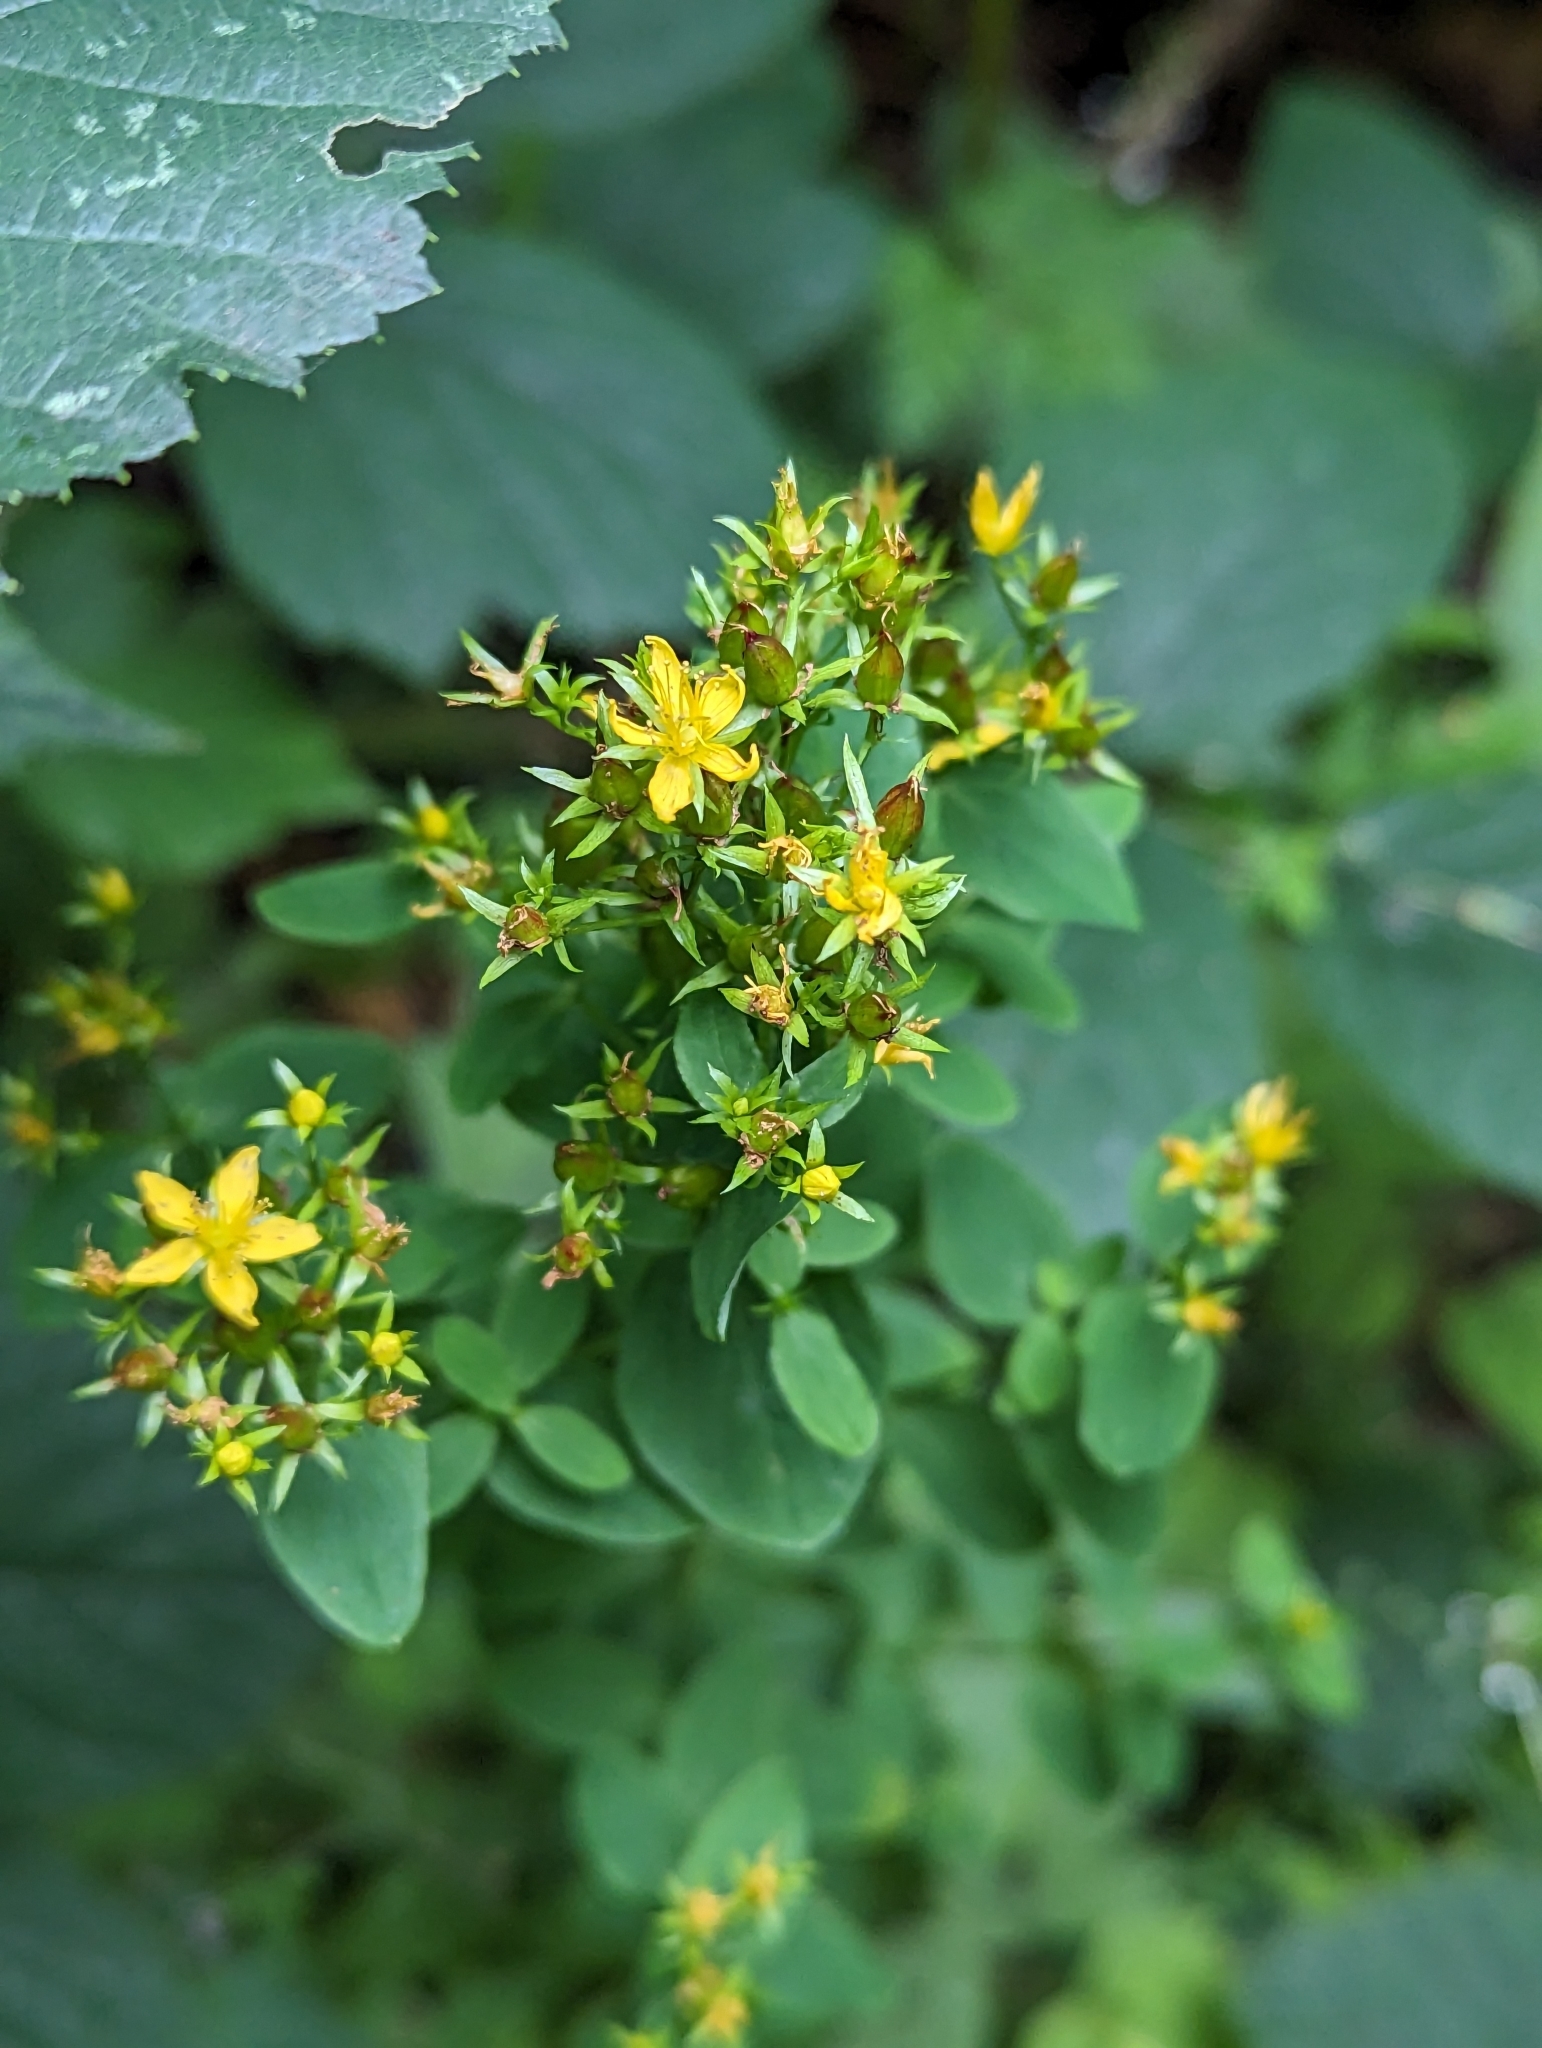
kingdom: Plantae
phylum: Tracheophyta
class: Magnoliopsida
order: Malpighiales
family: Hypericaceae
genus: Hypericum
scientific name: Hypericum tetrapterum
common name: Square-stalked st. john's-wort
